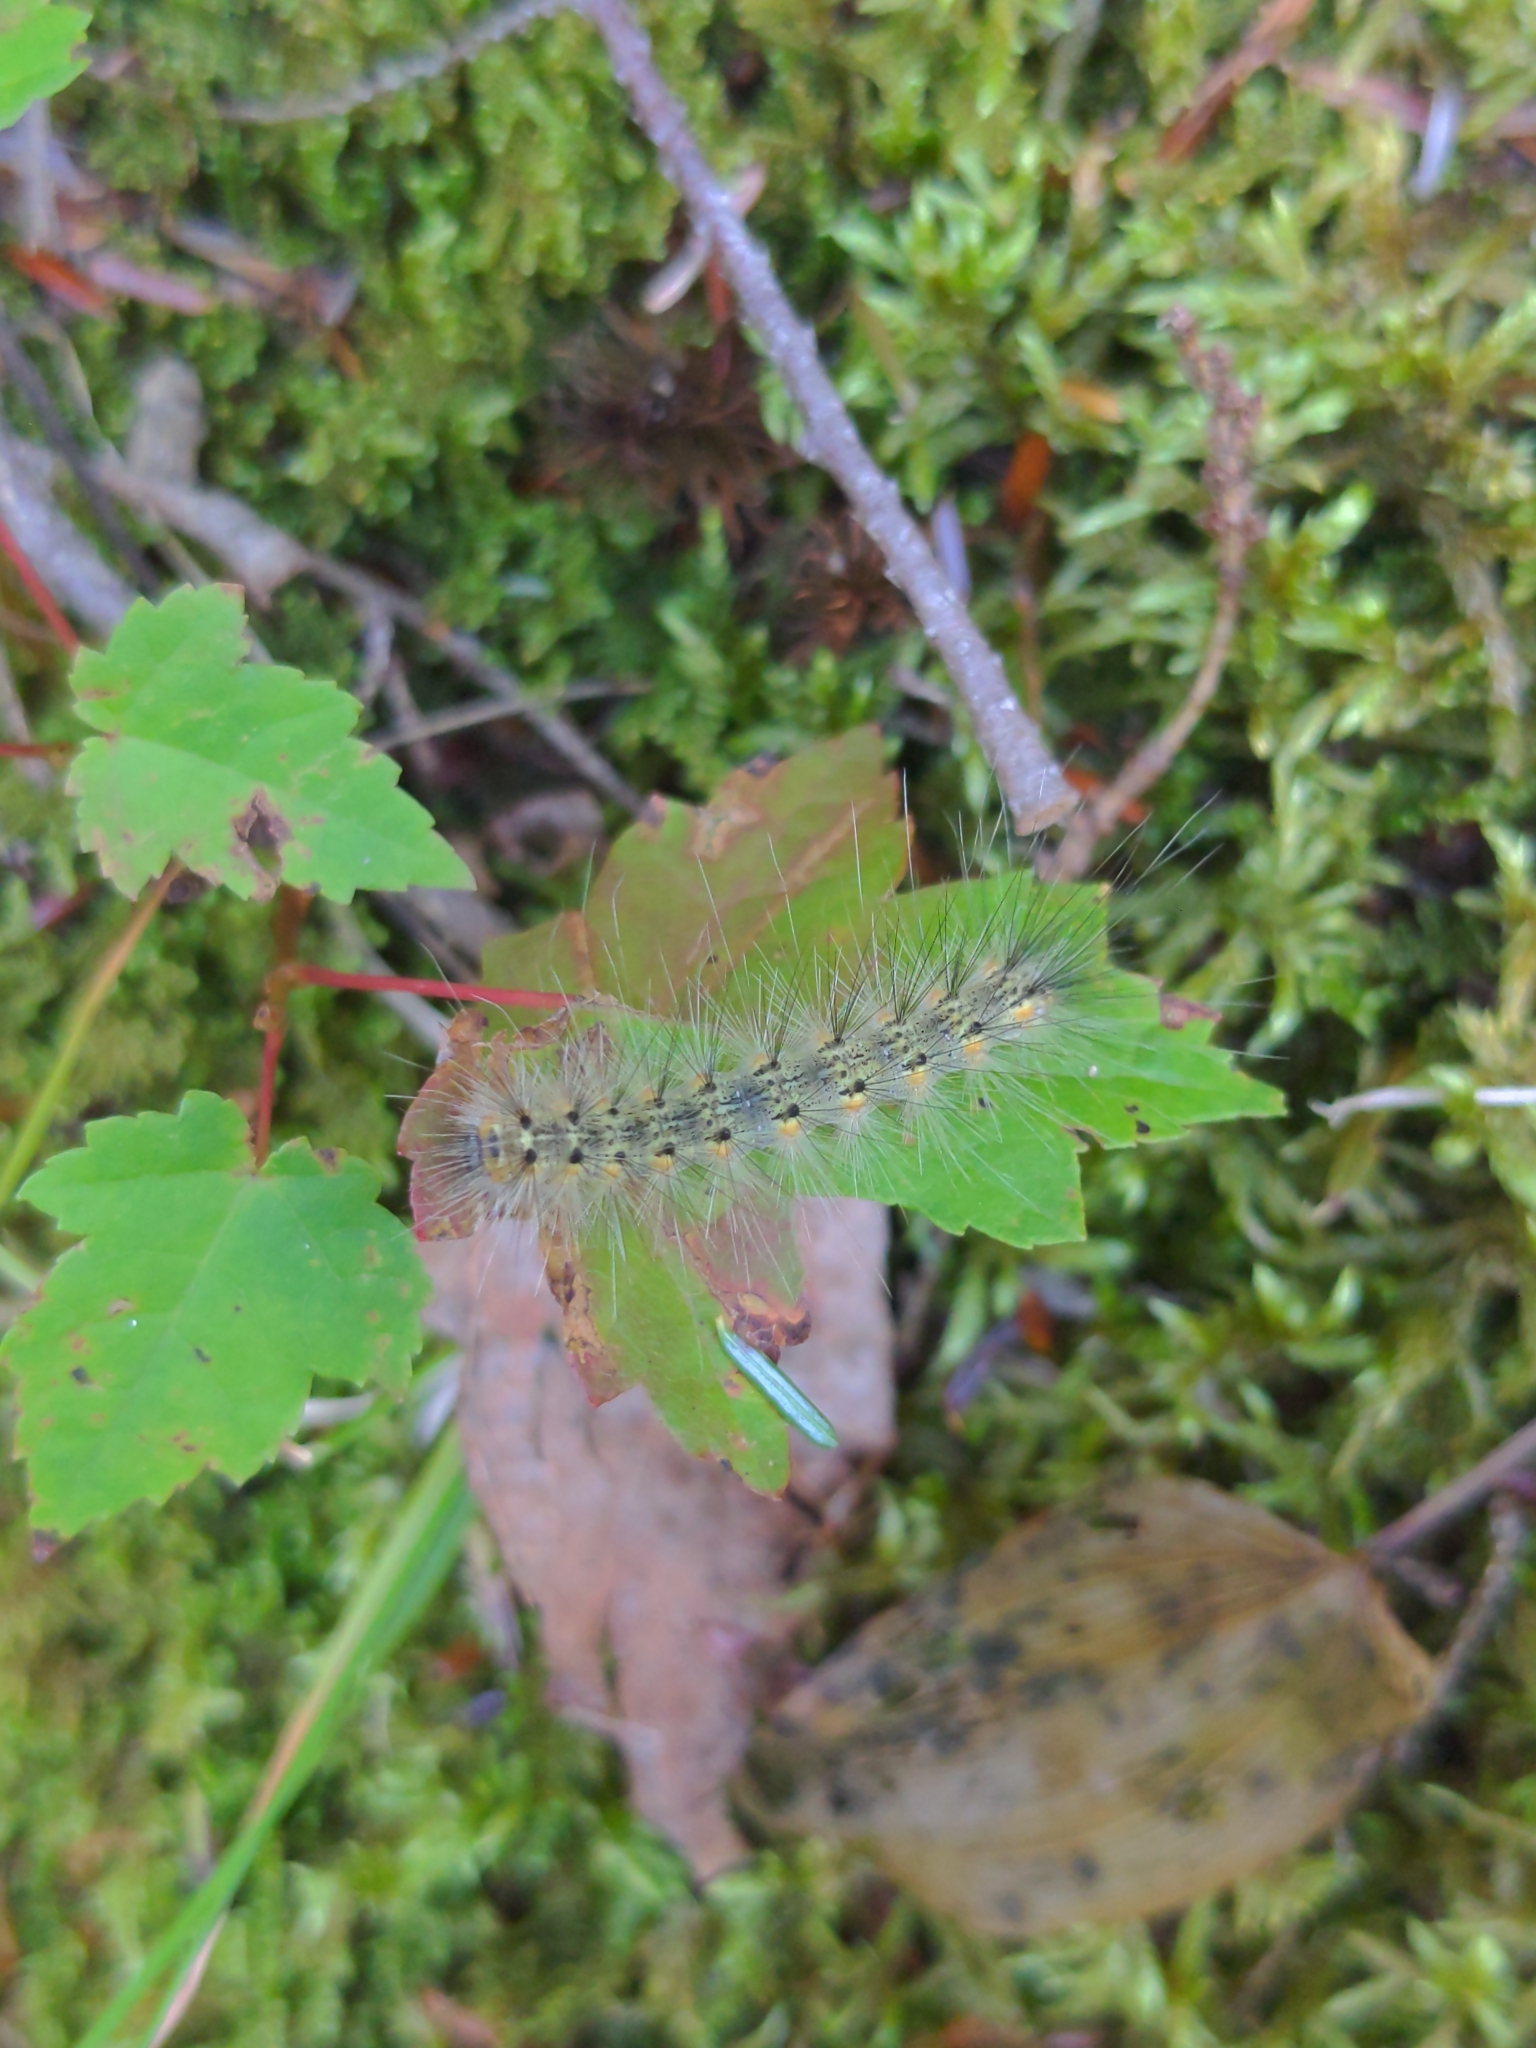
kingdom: Animalia
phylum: Arthropoda
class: Insecta
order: Lepidoptera
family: Erebidae
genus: Hyphantria
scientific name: Hyphantria cunea
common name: American white moth
